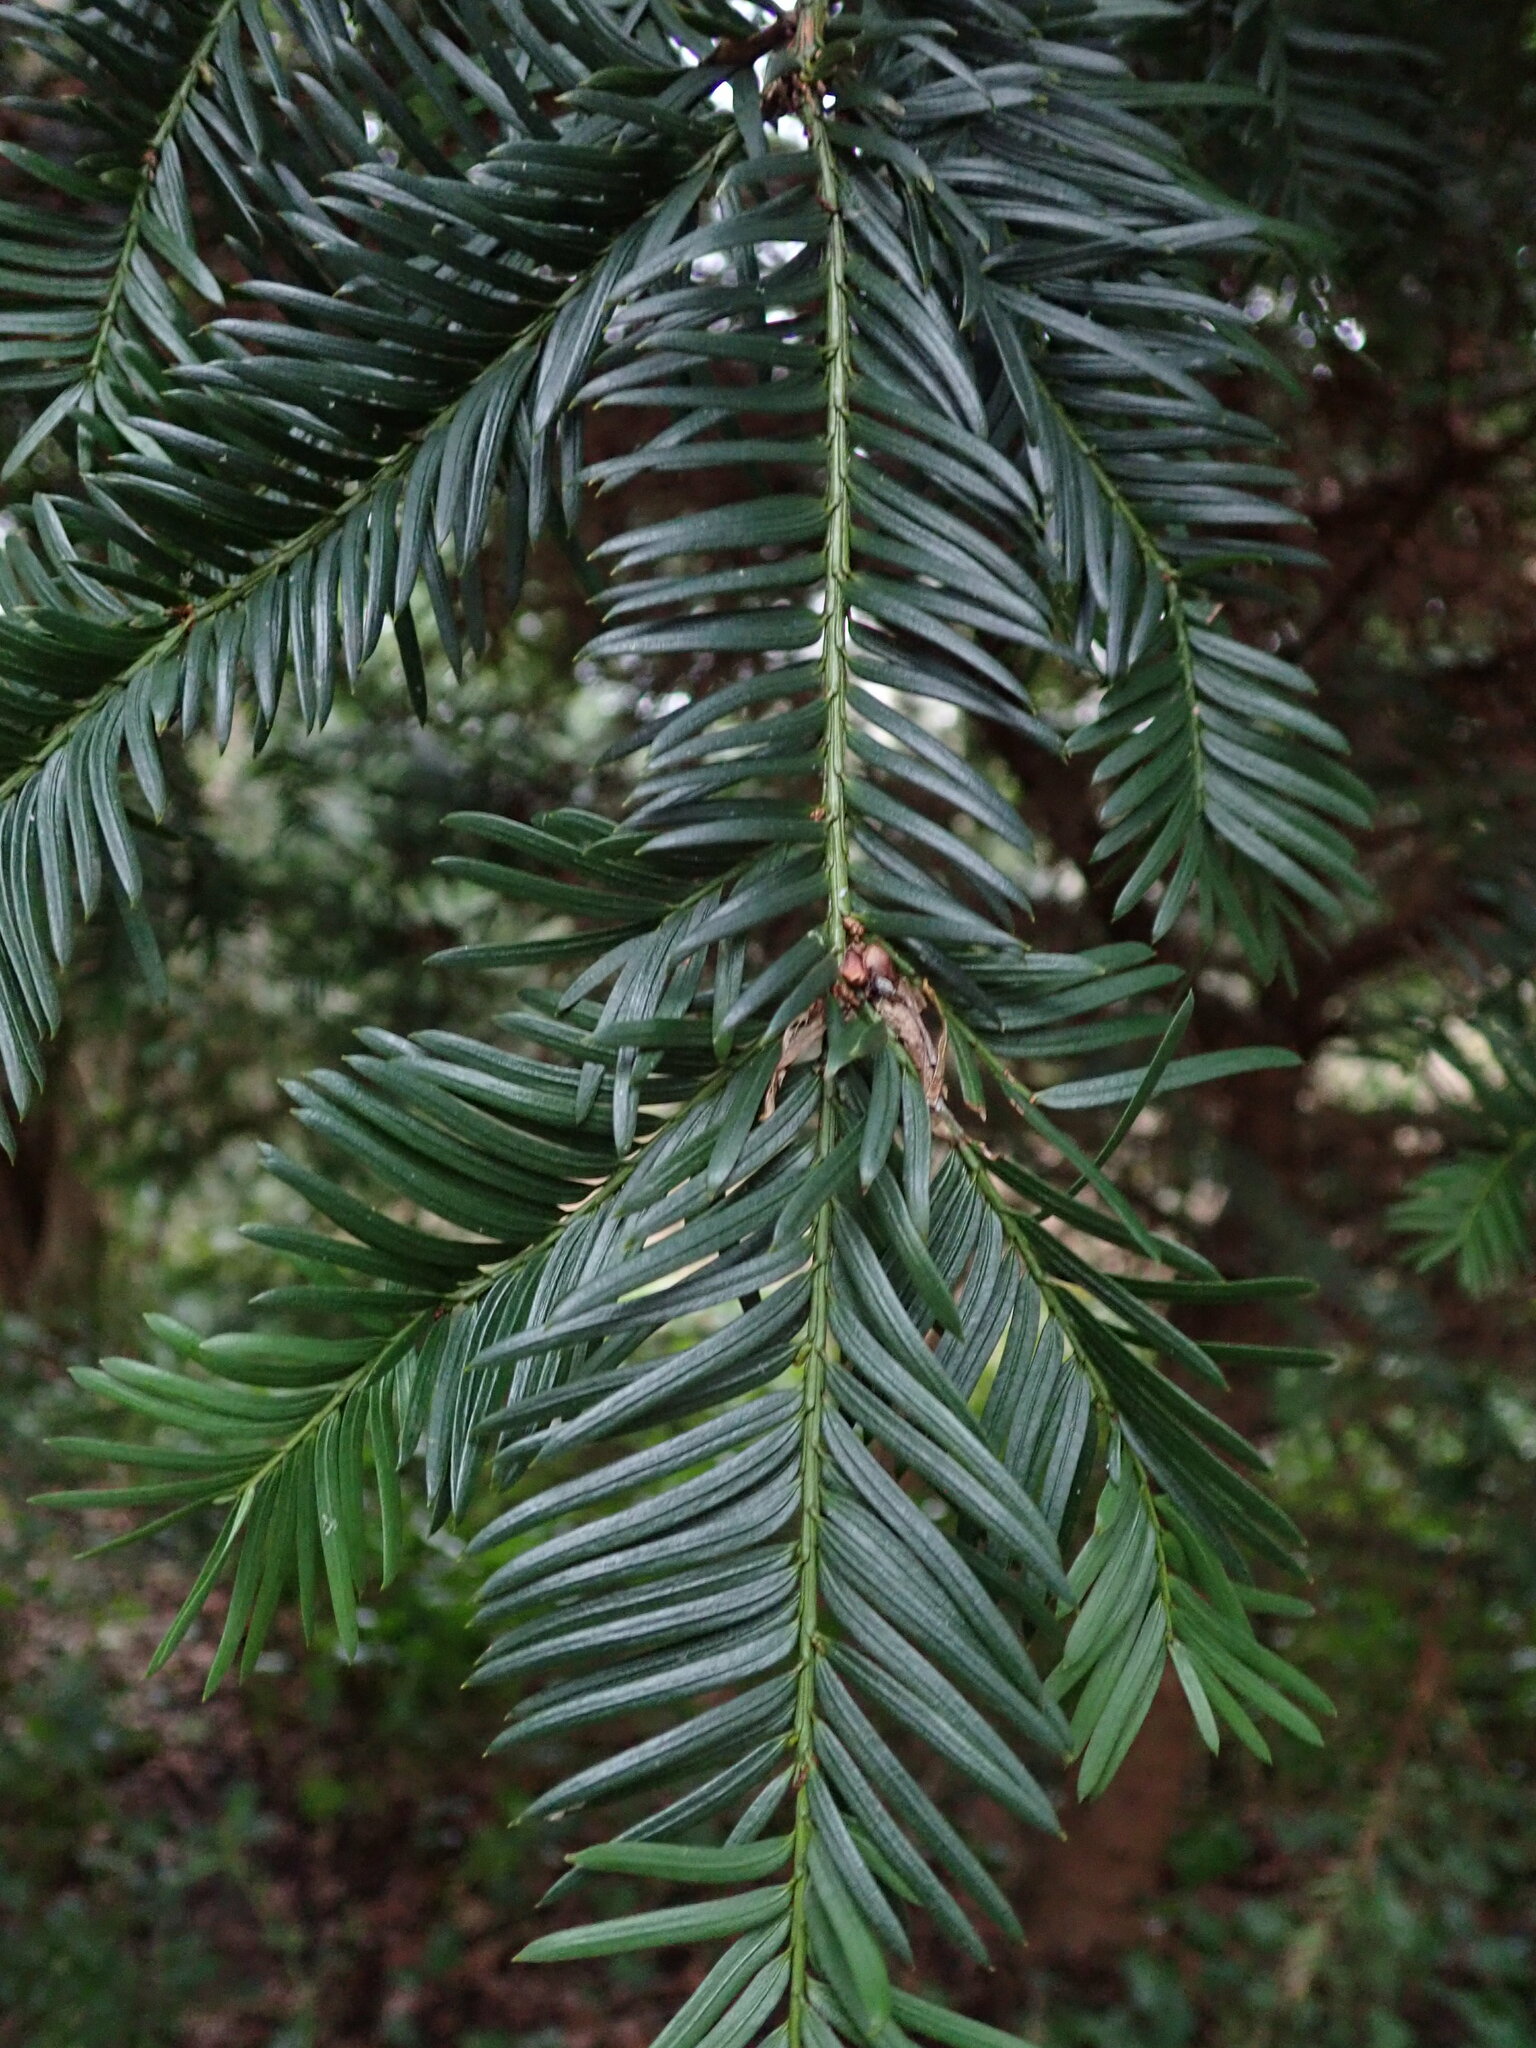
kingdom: Plantae
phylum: Tracheophyta
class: Pinopsida
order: Pinales
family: Taxaceae
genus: Taxus
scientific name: Taxus baccata
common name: Yew
